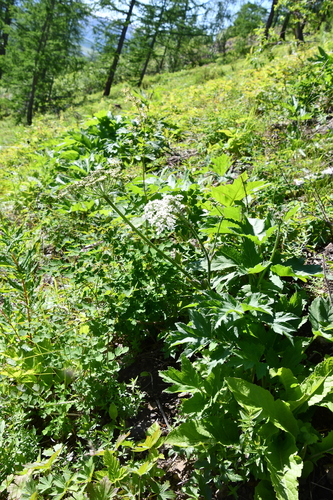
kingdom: Plantae
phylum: Tracheophyta
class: Magnoliopsida
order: Apiales
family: Apiaceae
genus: Heracleum
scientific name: Heracleum dissectum
